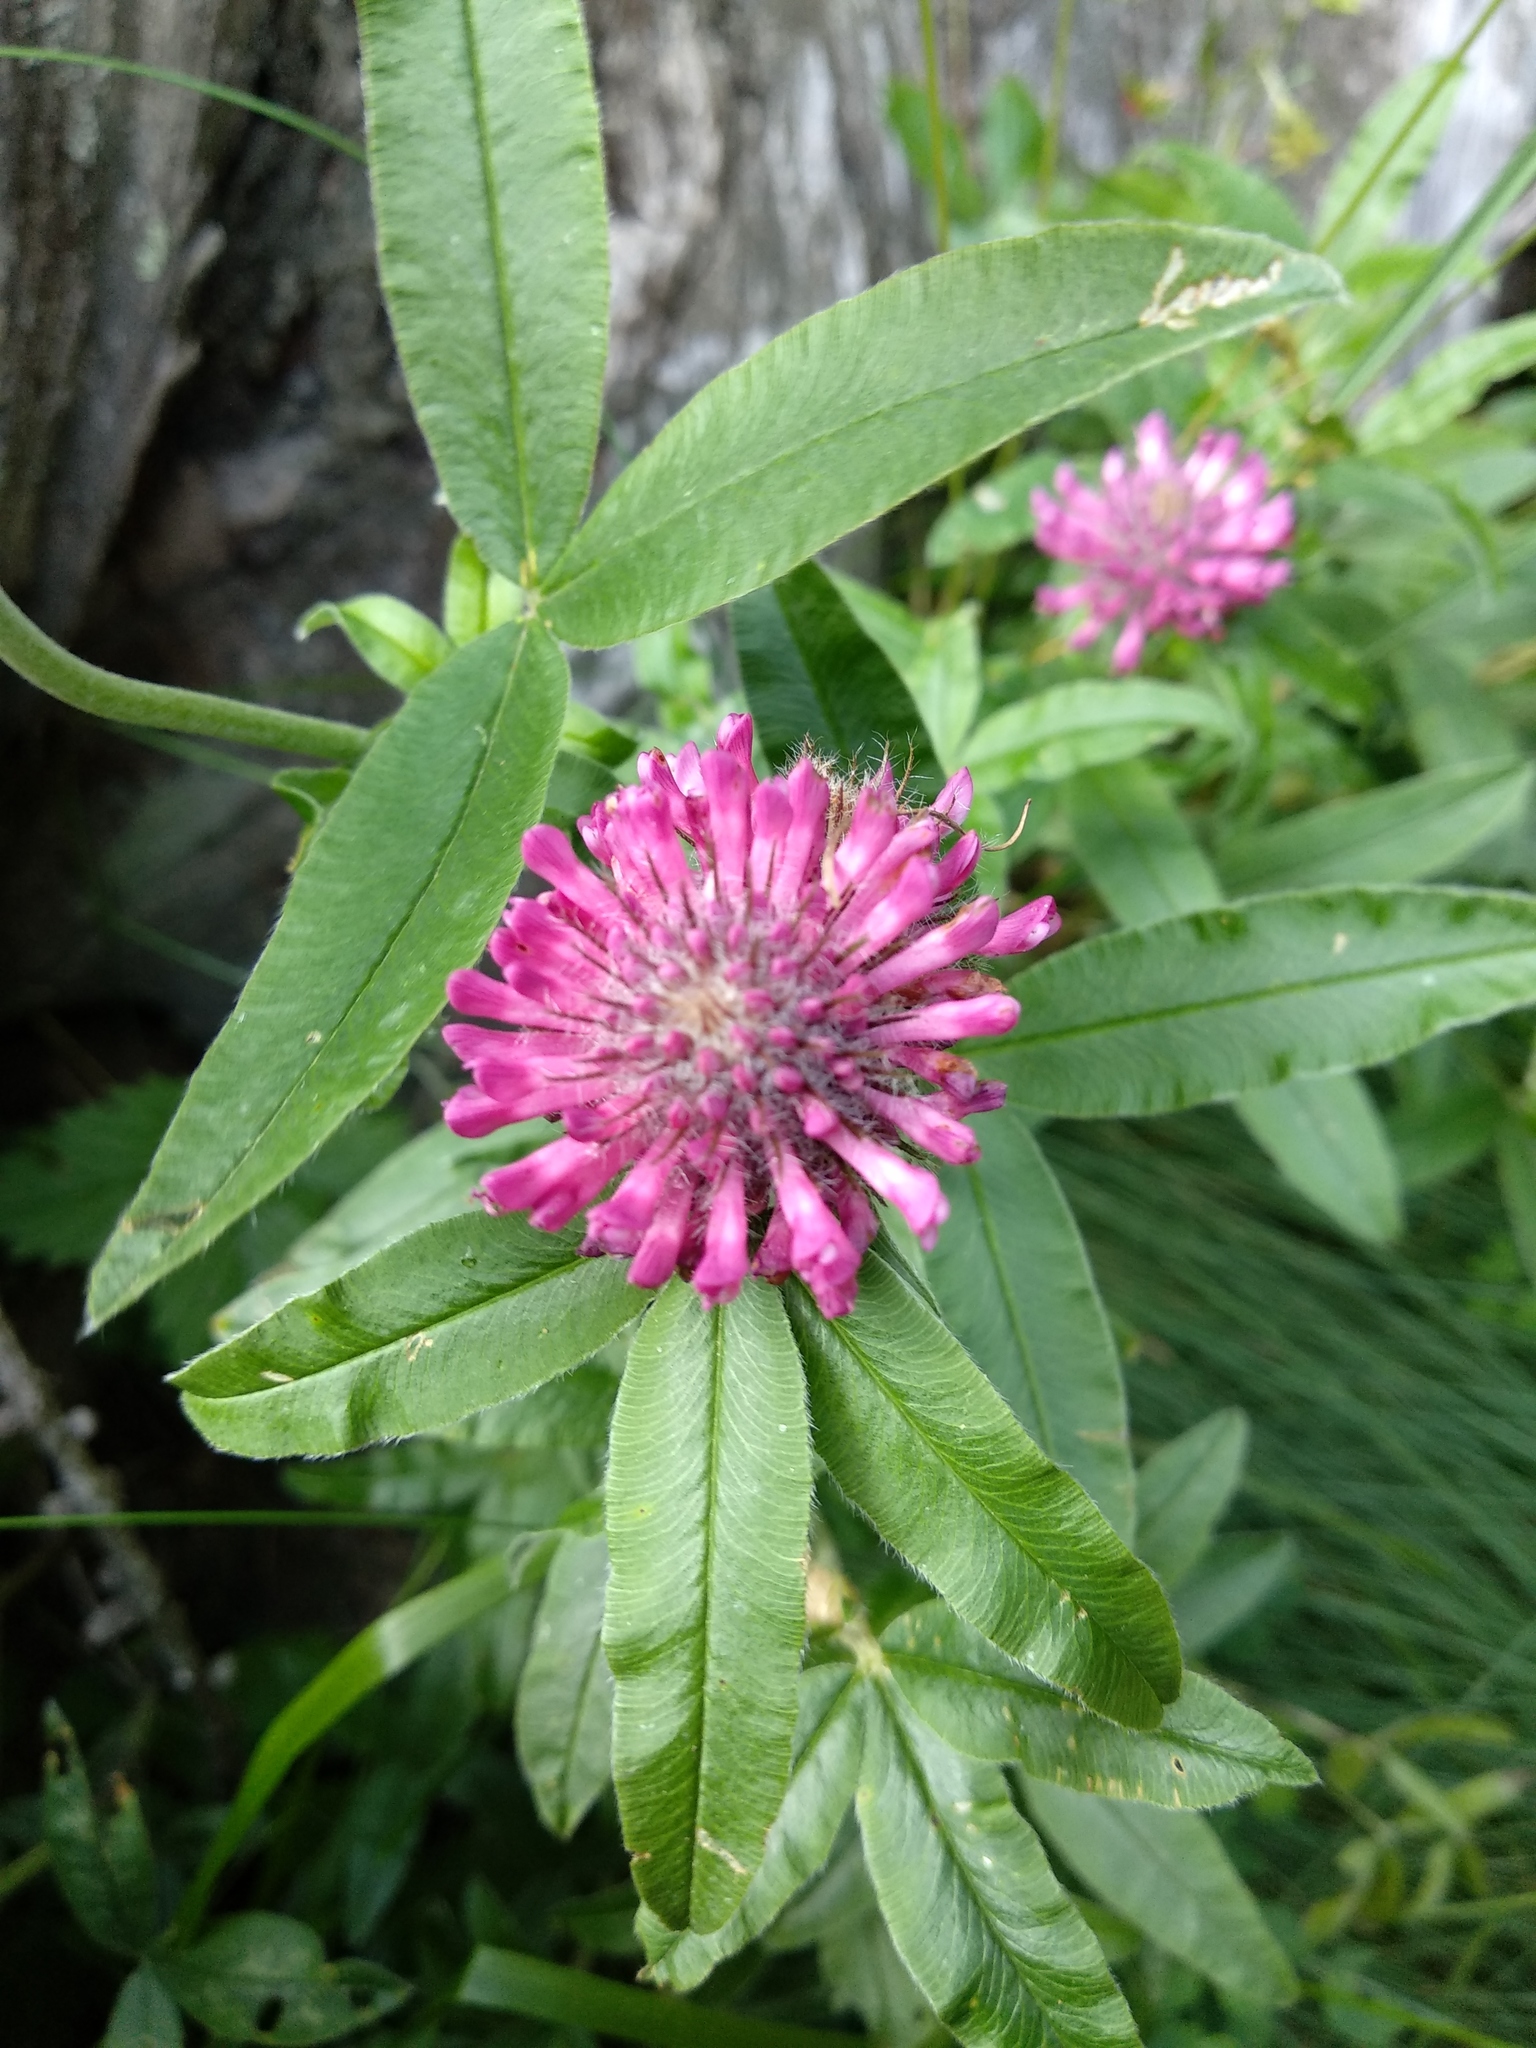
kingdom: Plantae
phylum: Tracheophyta
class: Magnoliopsida
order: Fabales
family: Fabaceae
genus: Trifolium
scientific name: Trifolium alpestre
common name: Owl-head clover
